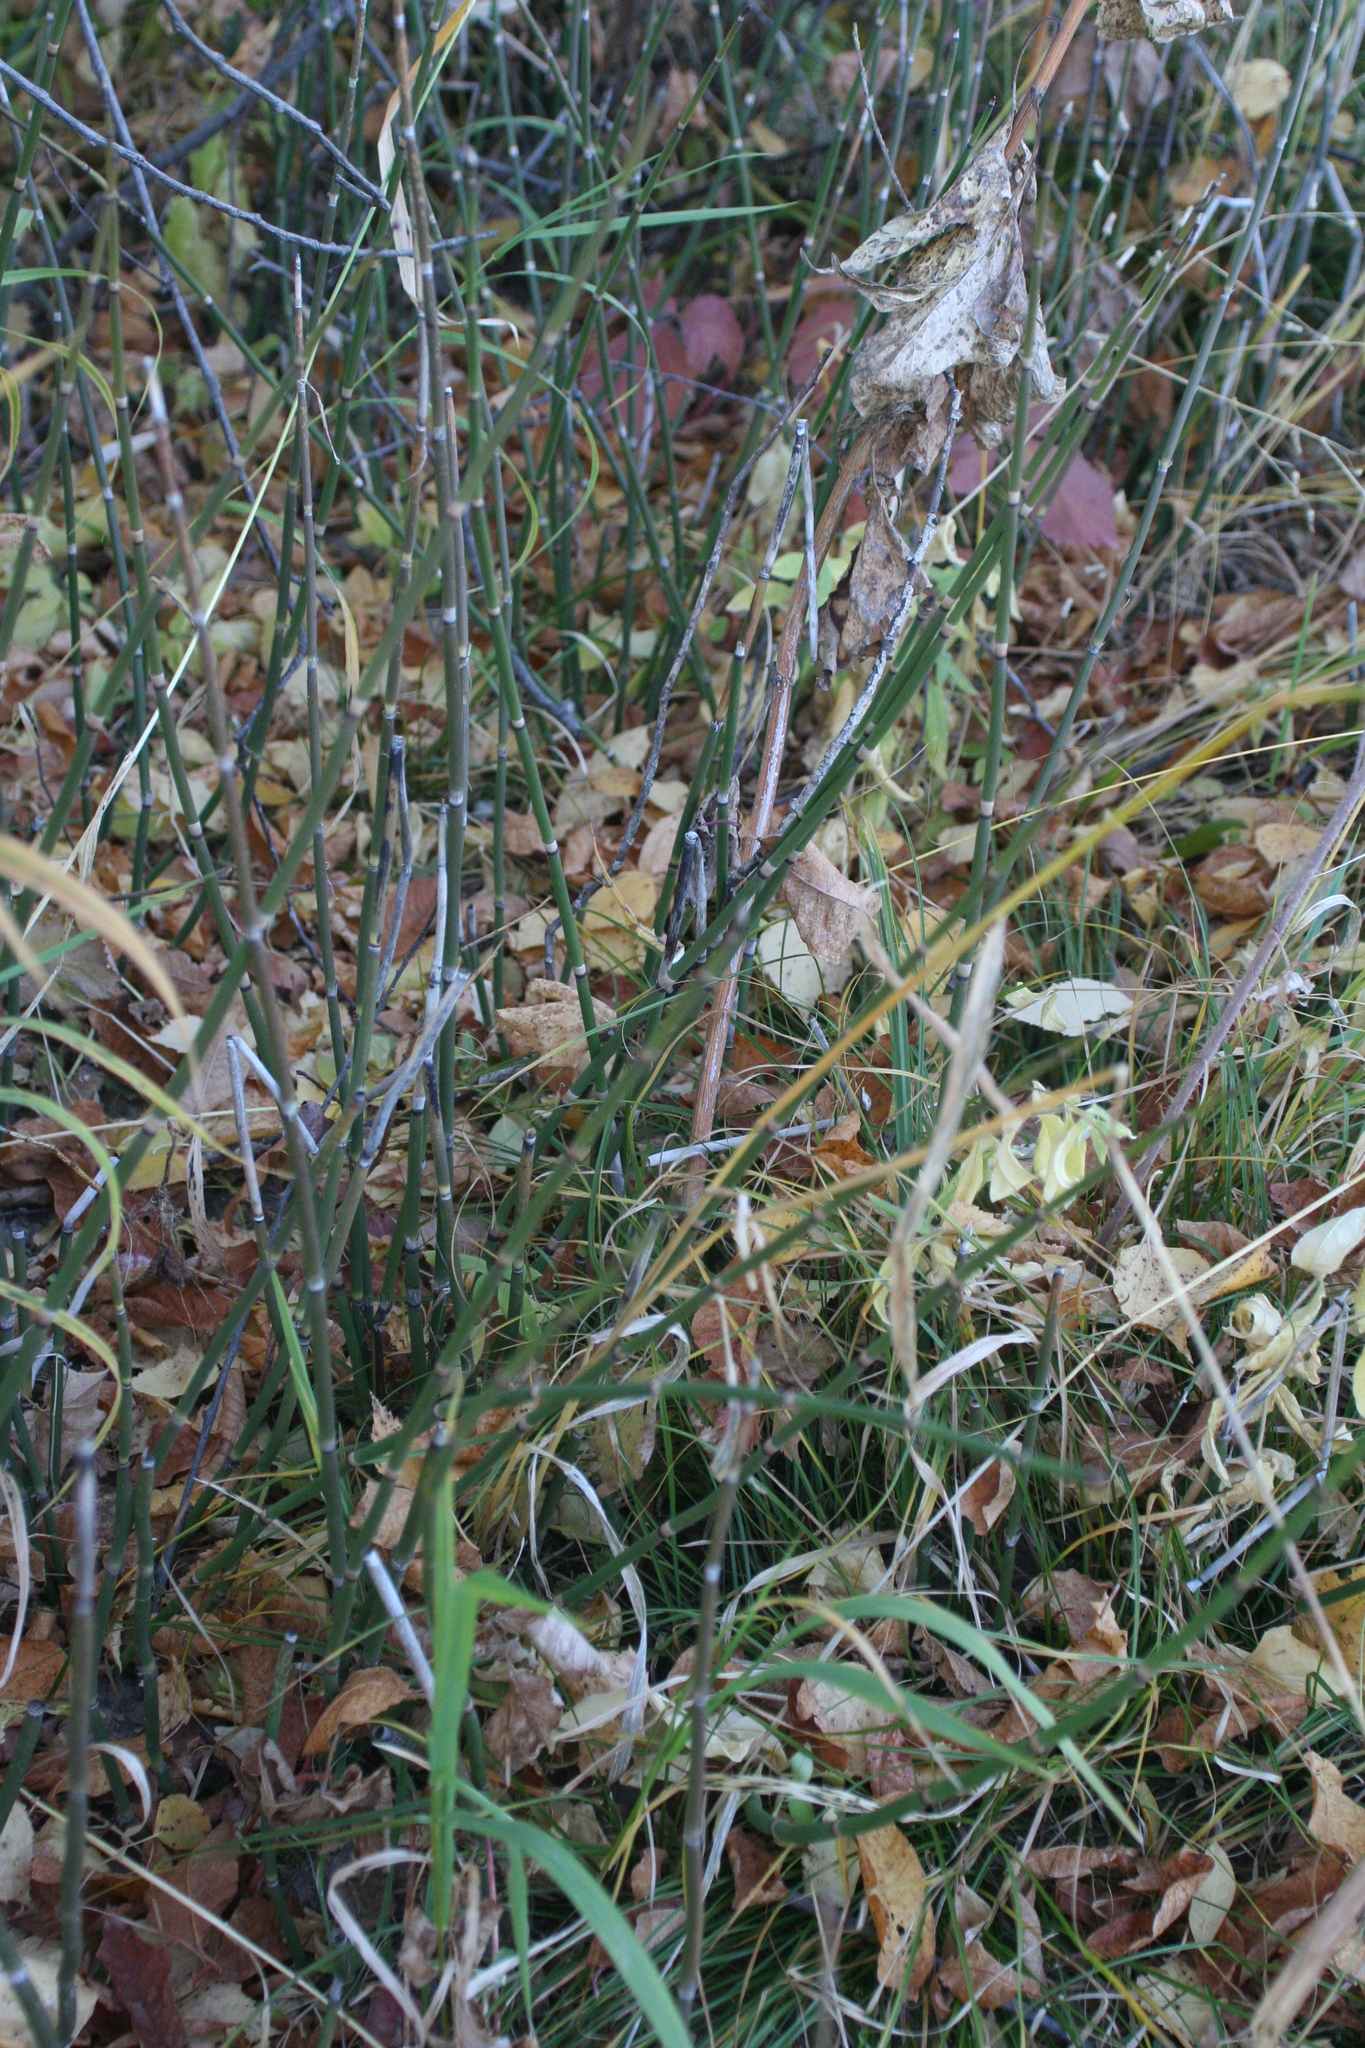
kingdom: Plantae
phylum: Tracheophyta
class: Polypodiopsida
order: Equisetales
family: Equisetaceae
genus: Equisetum
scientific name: Equisetum hyemale
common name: Rough horsetail
